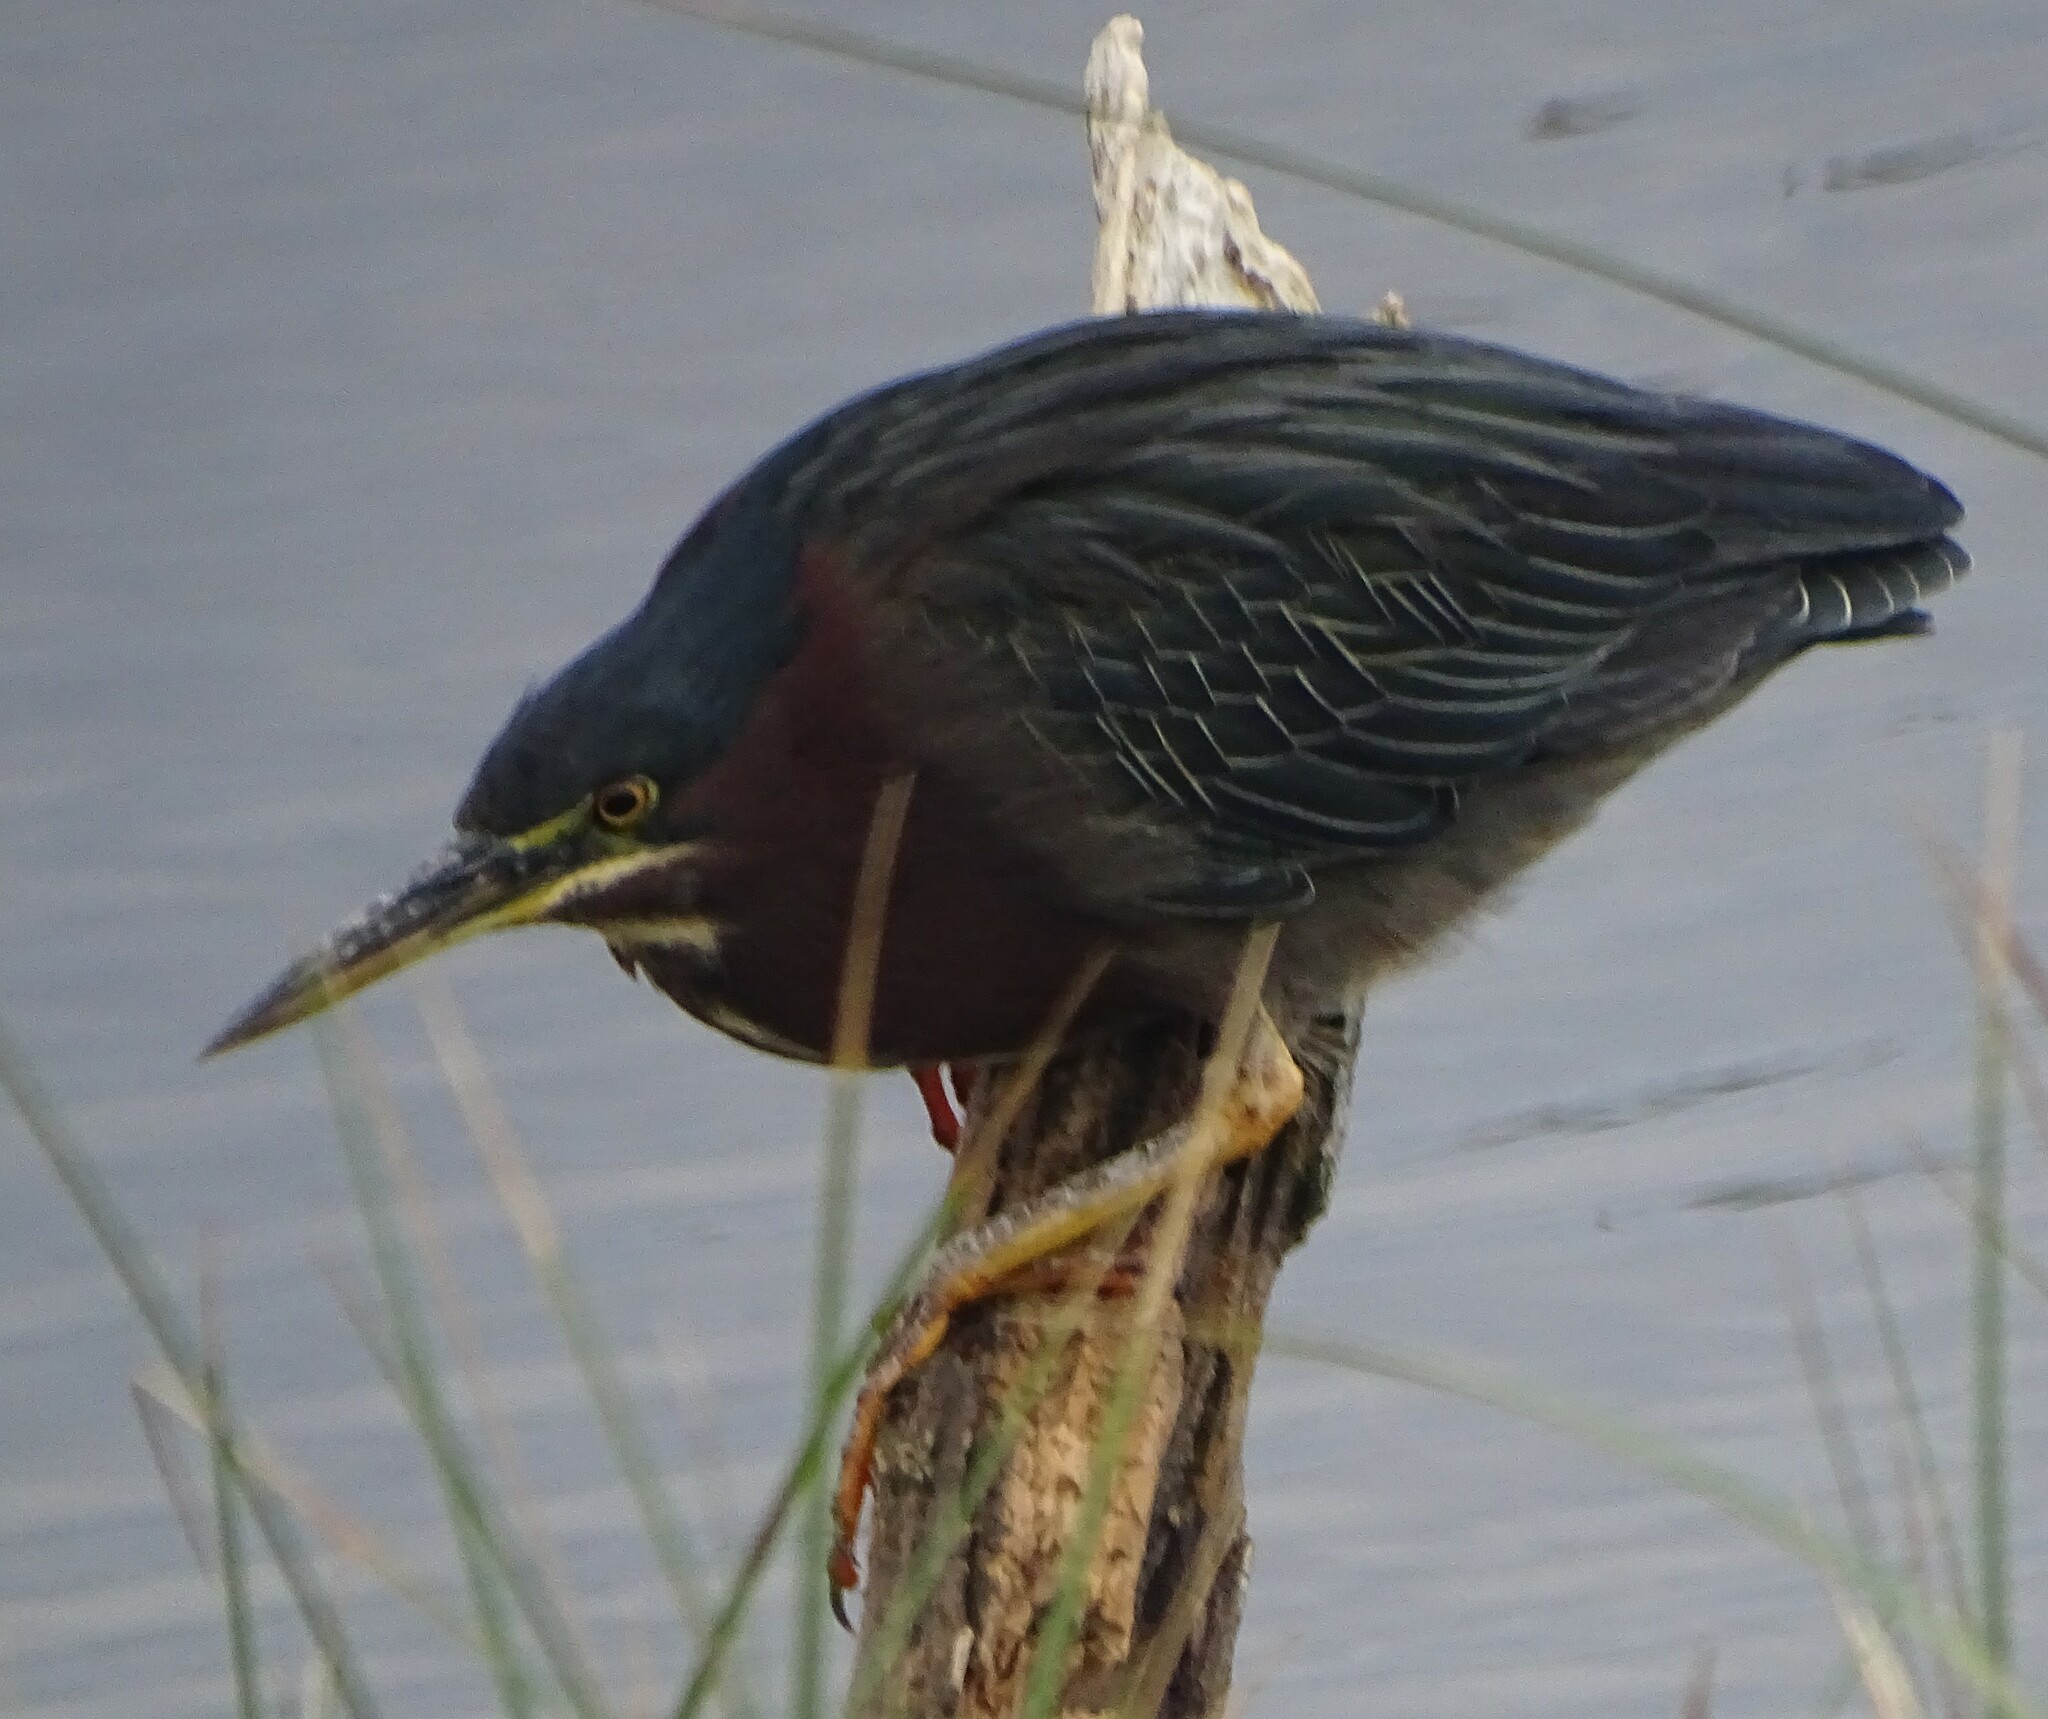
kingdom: Animalia
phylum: Chordata
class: Aves
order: Pelecaniformes
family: Ardeidae
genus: Butorides
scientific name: Butorides virescens
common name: Green heron
